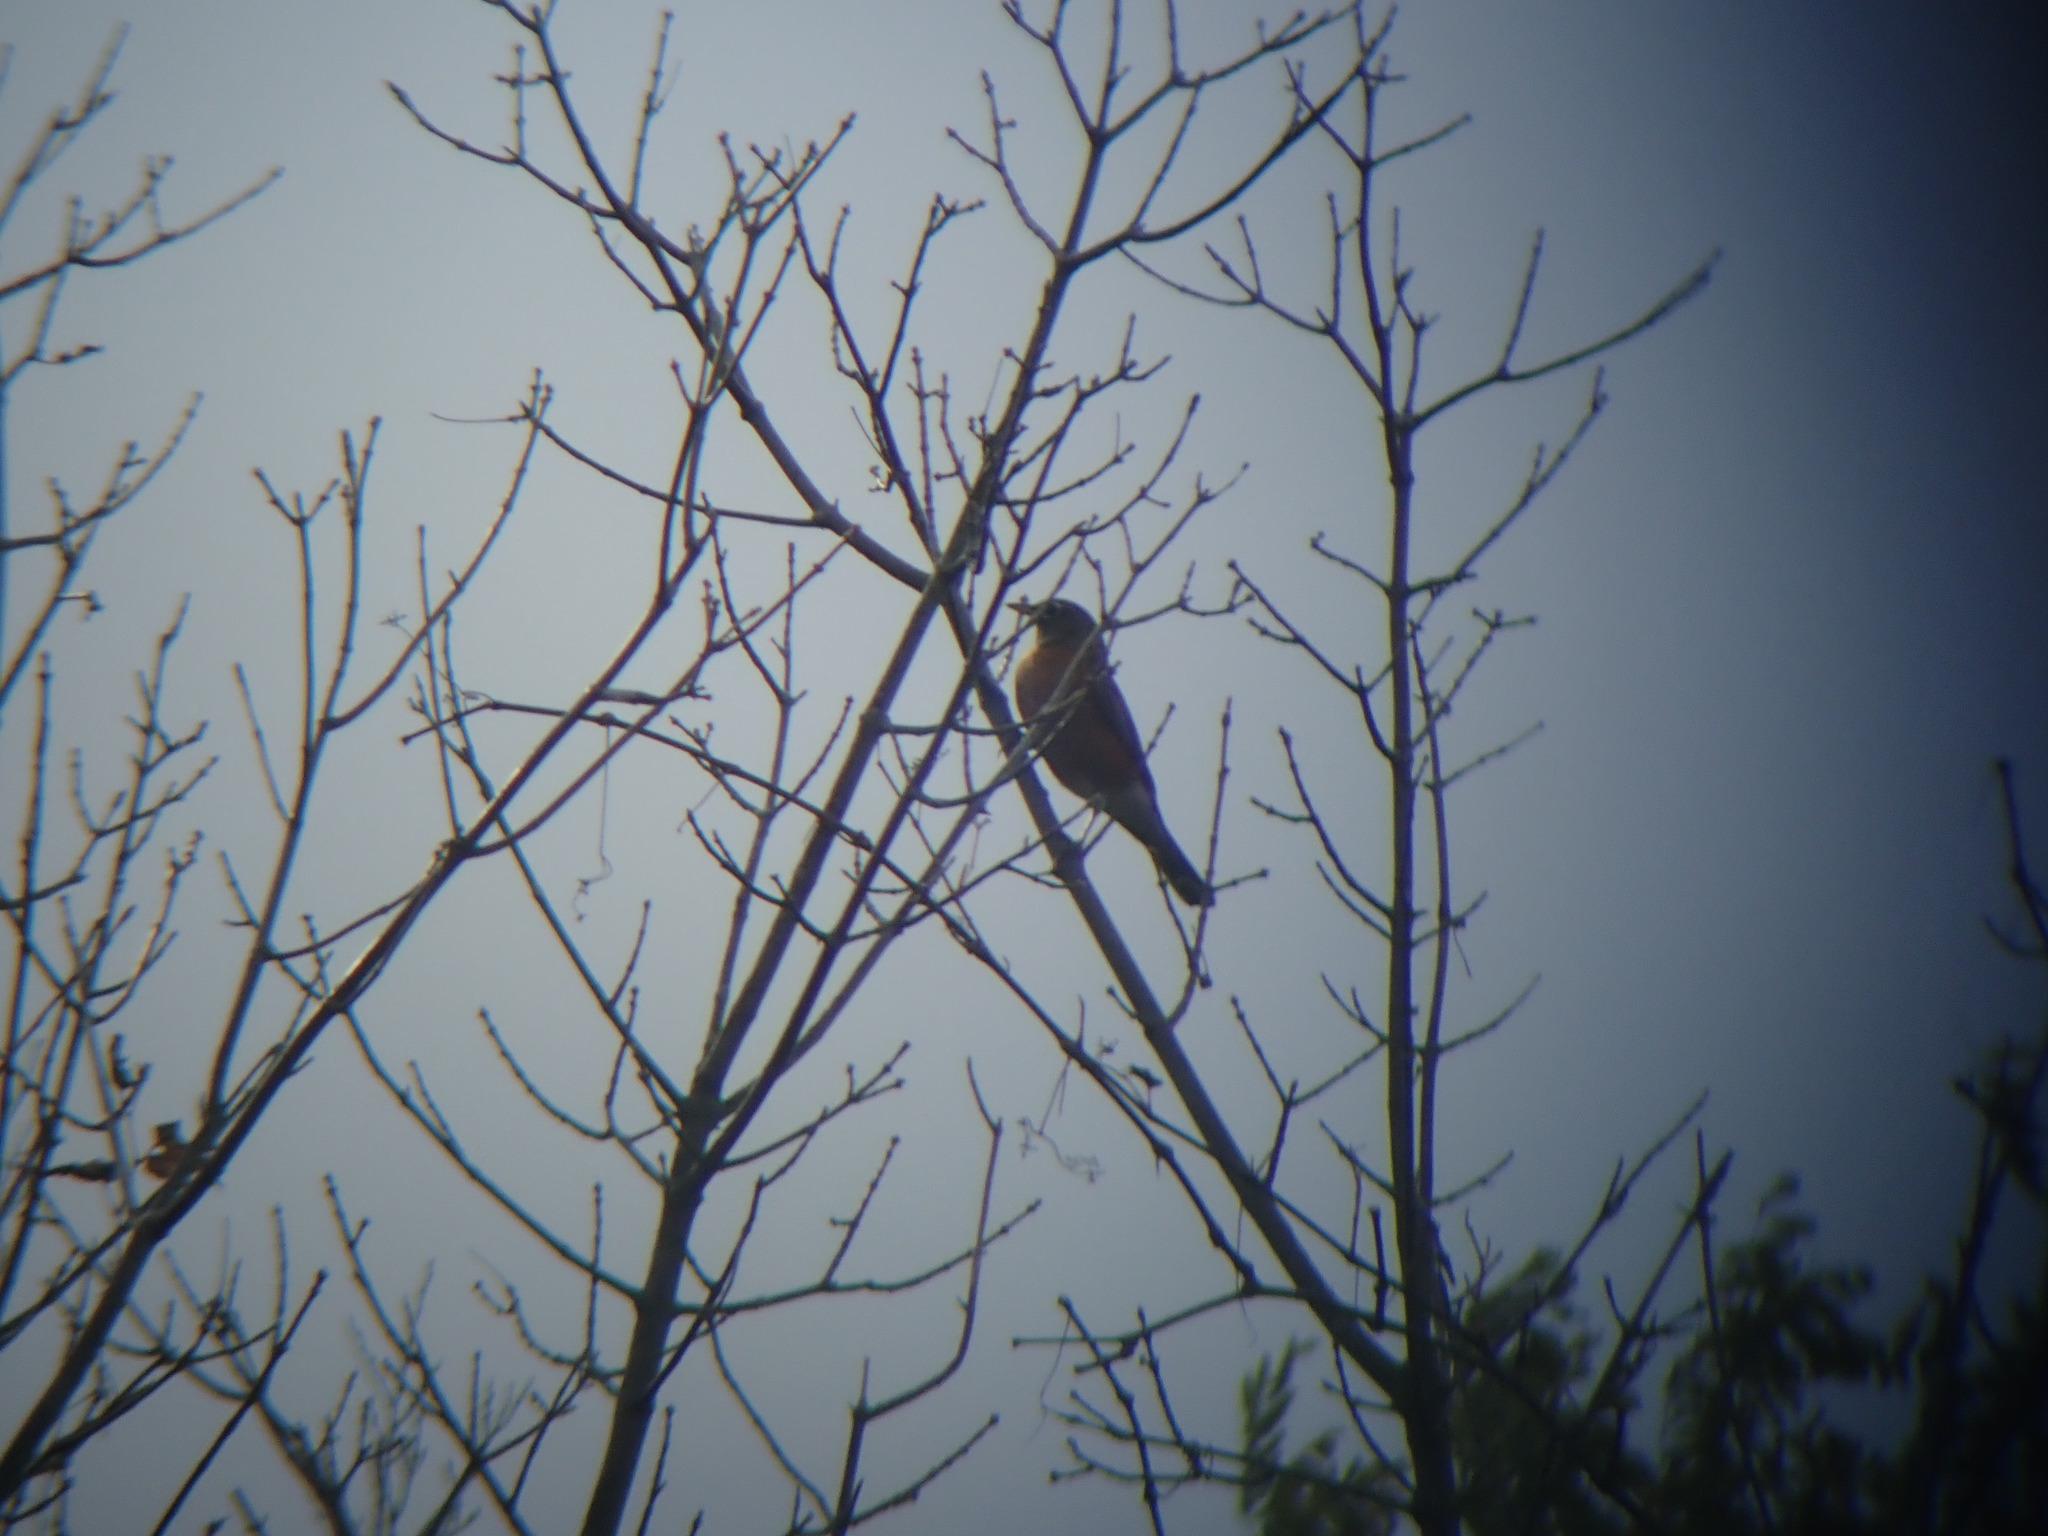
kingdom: Animalia
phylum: Chordata
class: Aves
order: Passeriformes
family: Turdidae
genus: Turdus
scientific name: Turdus migratorius
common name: American robin
